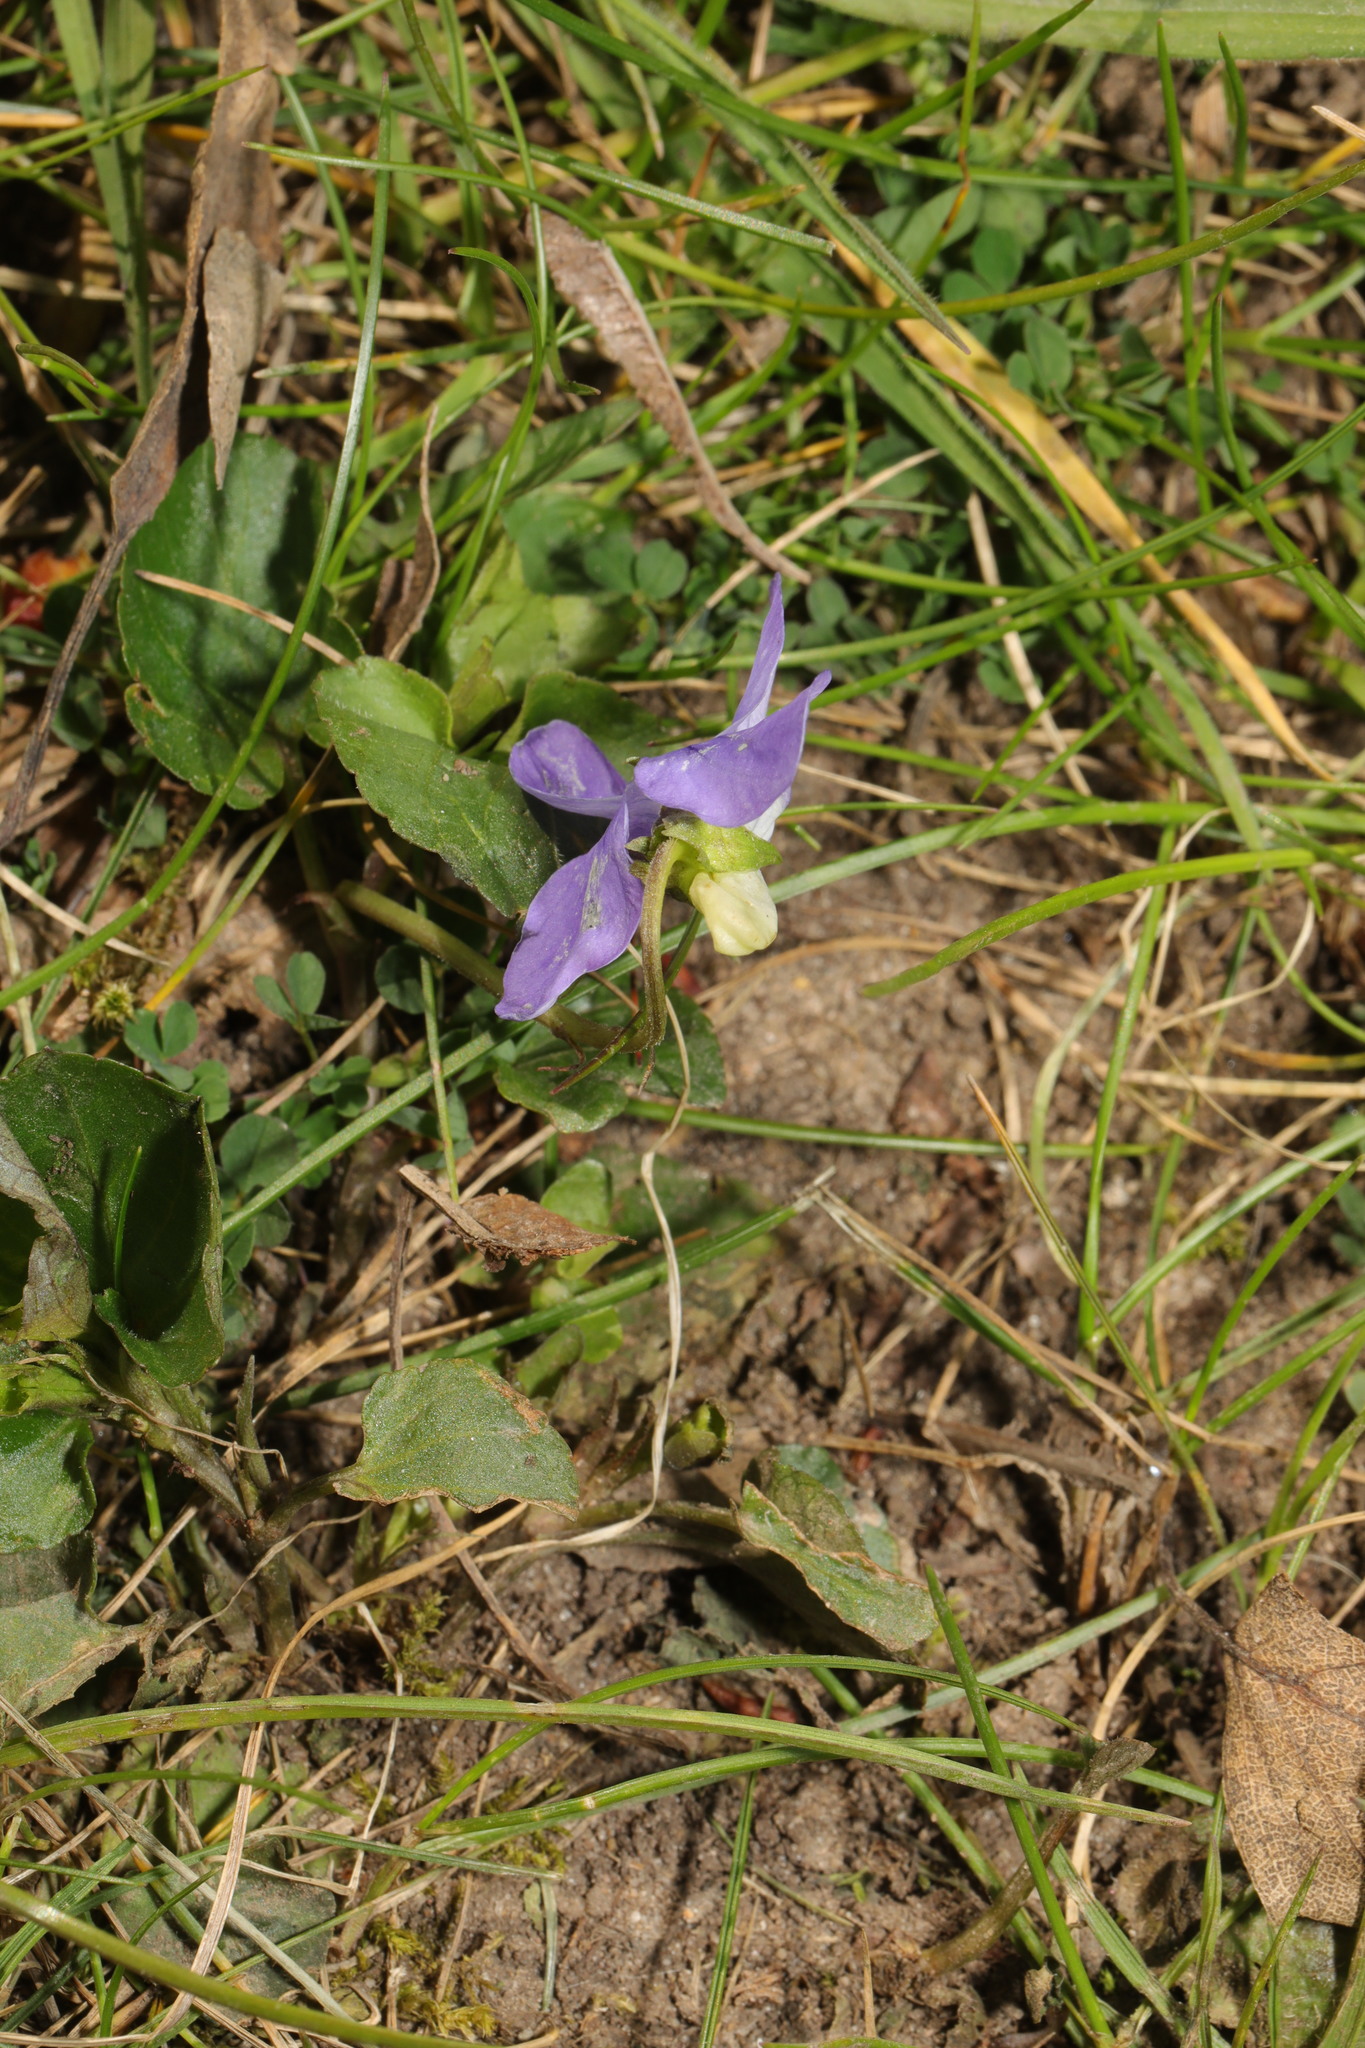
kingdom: Plantae
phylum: Tracheophyta
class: Magnoliopsida
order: Malpighiales
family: Violaceae
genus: Viola
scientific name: Viola riviniana
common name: Common dog-violet
